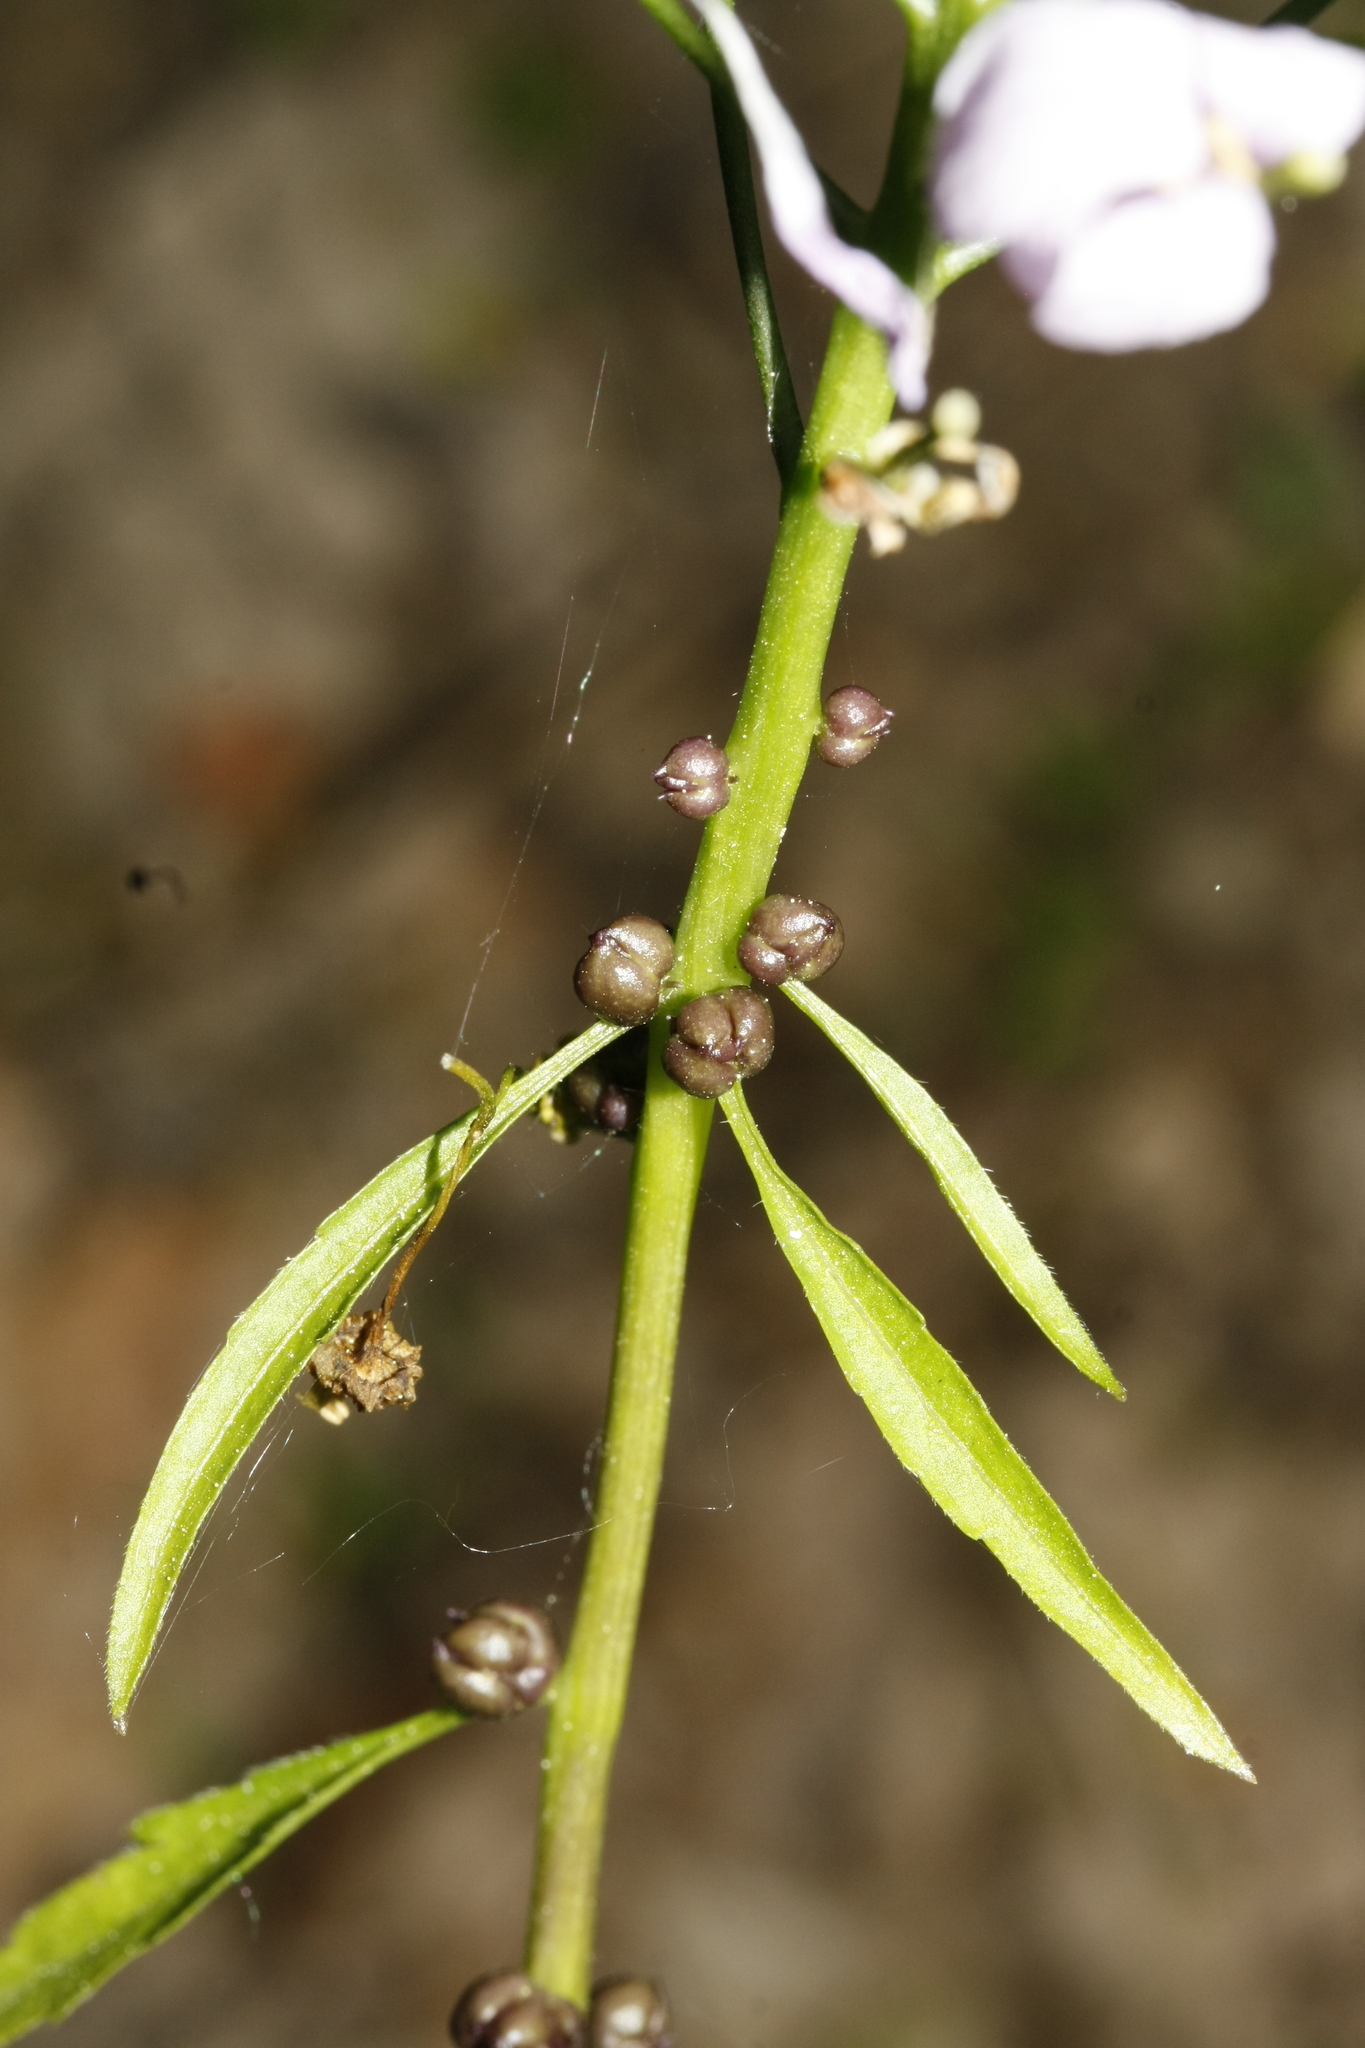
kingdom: Plantae
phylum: Tracheophyta
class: Magnoliopsida
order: Brassicales
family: Brassicaceae
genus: Cardamine
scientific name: Cardamine bulbifera
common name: Coralroot bittercress
